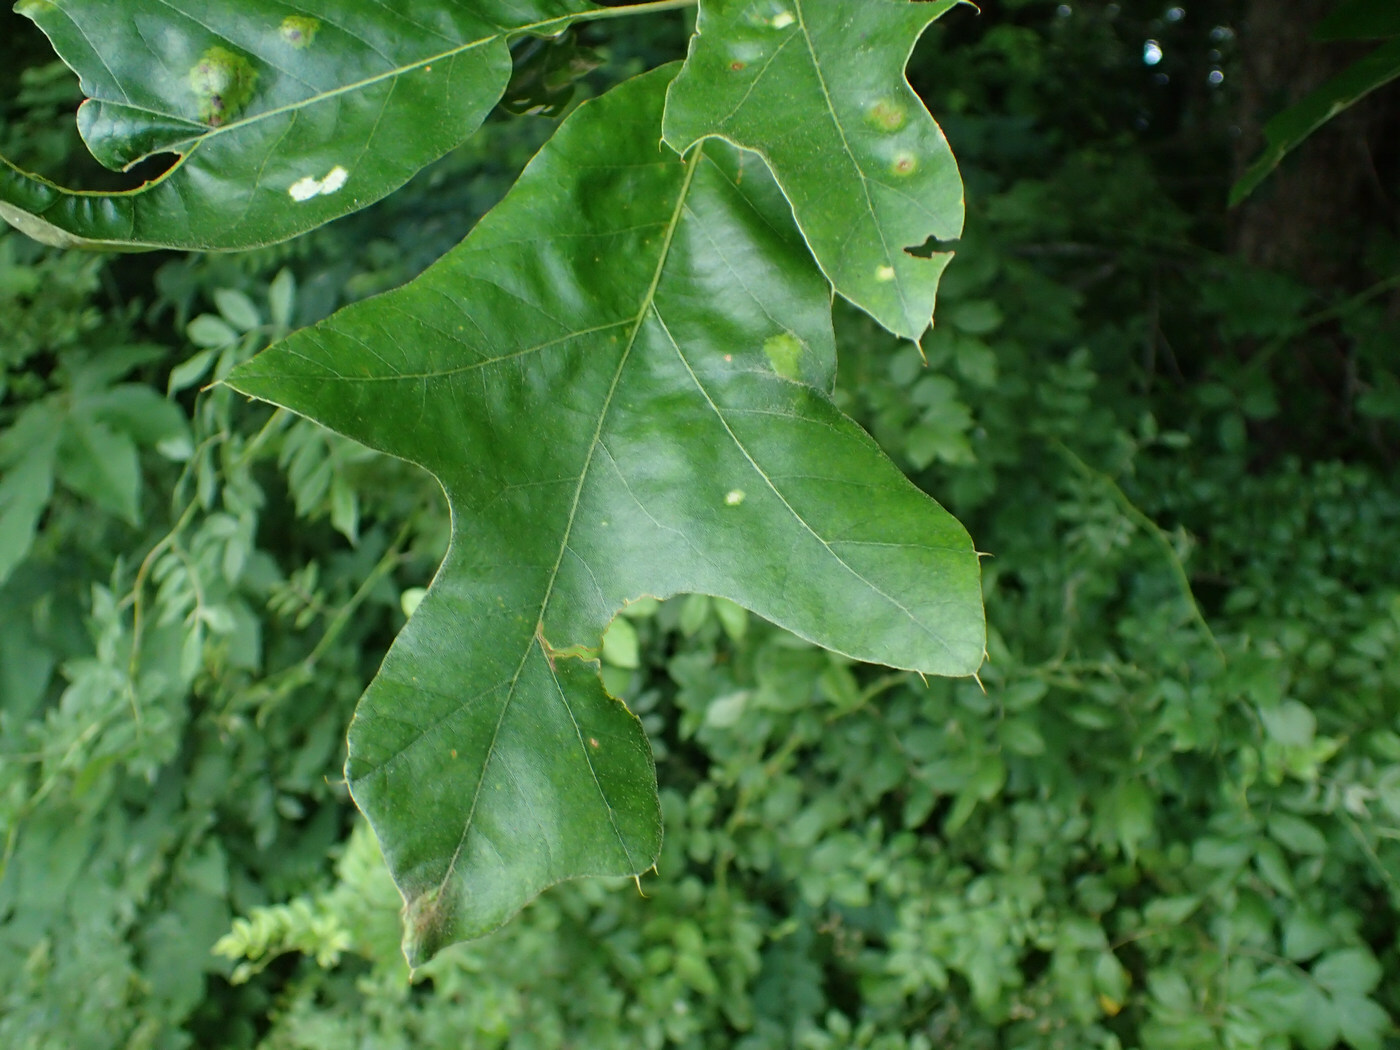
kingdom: Plantae
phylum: Tracheophyta
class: Magnoliopsida
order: Fagales
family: Fagaceae
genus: Quercus
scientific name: Quercus falcata
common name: Southern red oak
